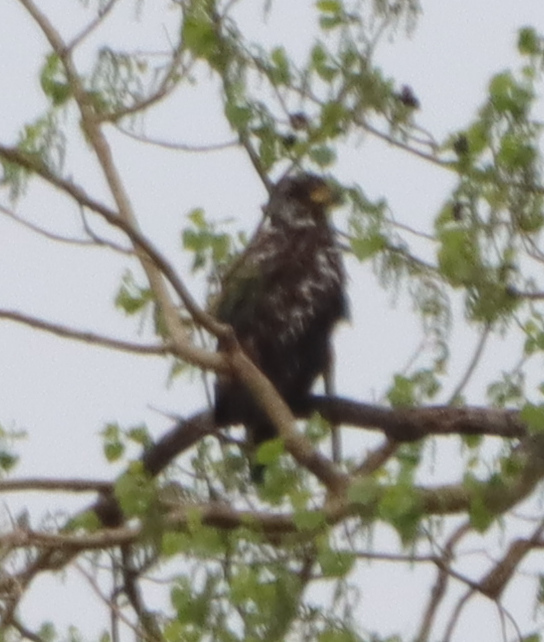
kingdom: Animalia
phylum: Chordata
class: Aves
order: Accipitriformes
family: Accipitridae
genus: Haliaeetus
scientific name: Haliaeetus leucocephalus
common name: Bald eagle
